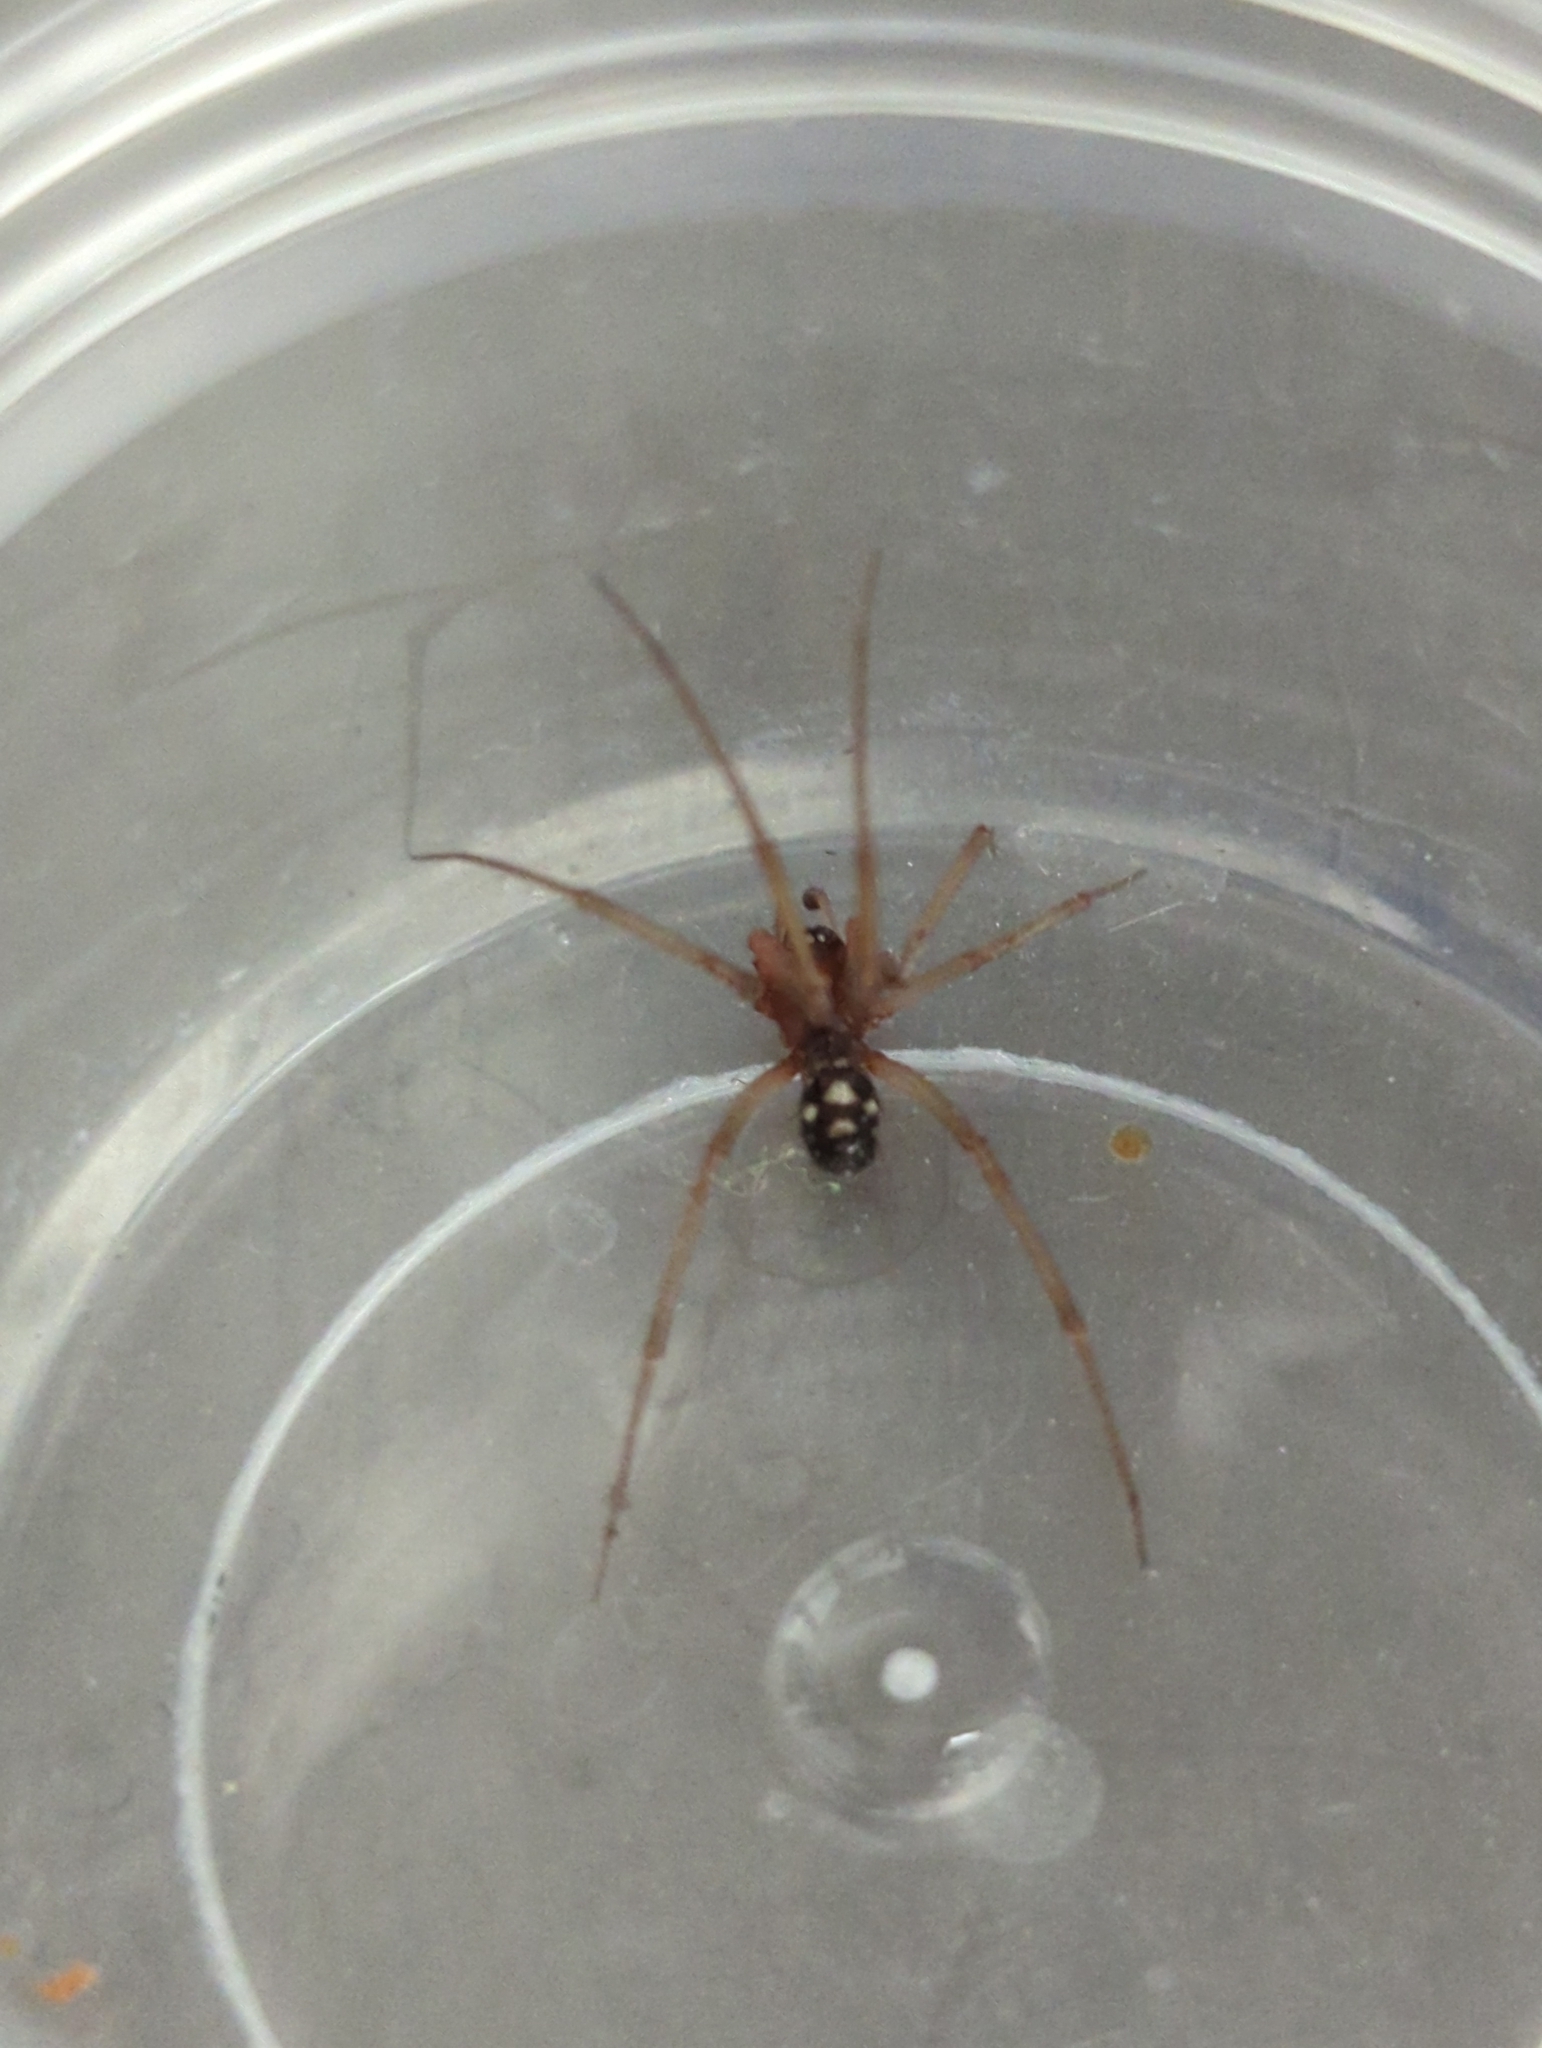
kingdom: Animalia
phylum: Arthropoda
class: Arachnida
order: Araneae
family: Theridiidae
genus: Steatoda
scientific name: Steatoda grossa
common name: False black widow
